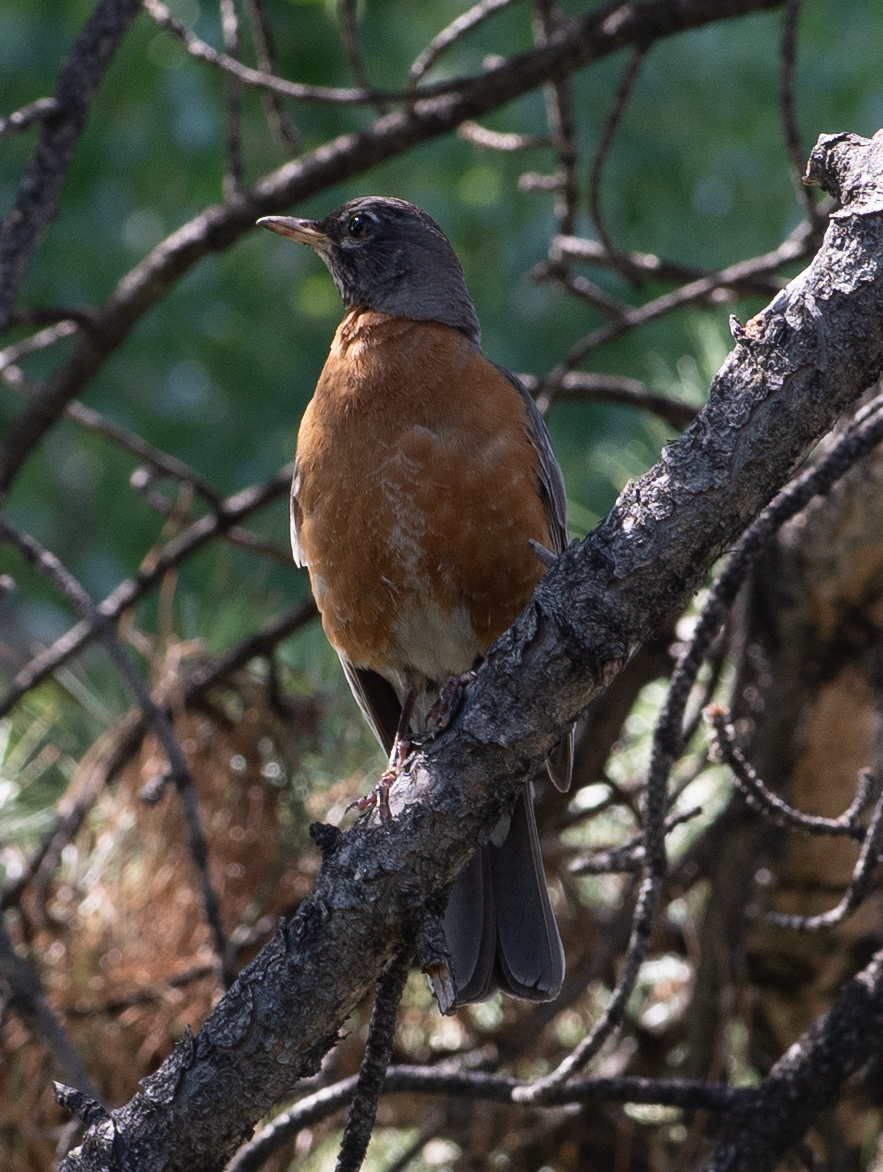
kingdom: Animalia
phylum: Chordata
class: Aves
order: Passeriformes
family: Turdidae
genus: Turdus
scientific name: Turdus migratorius
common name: American robin
